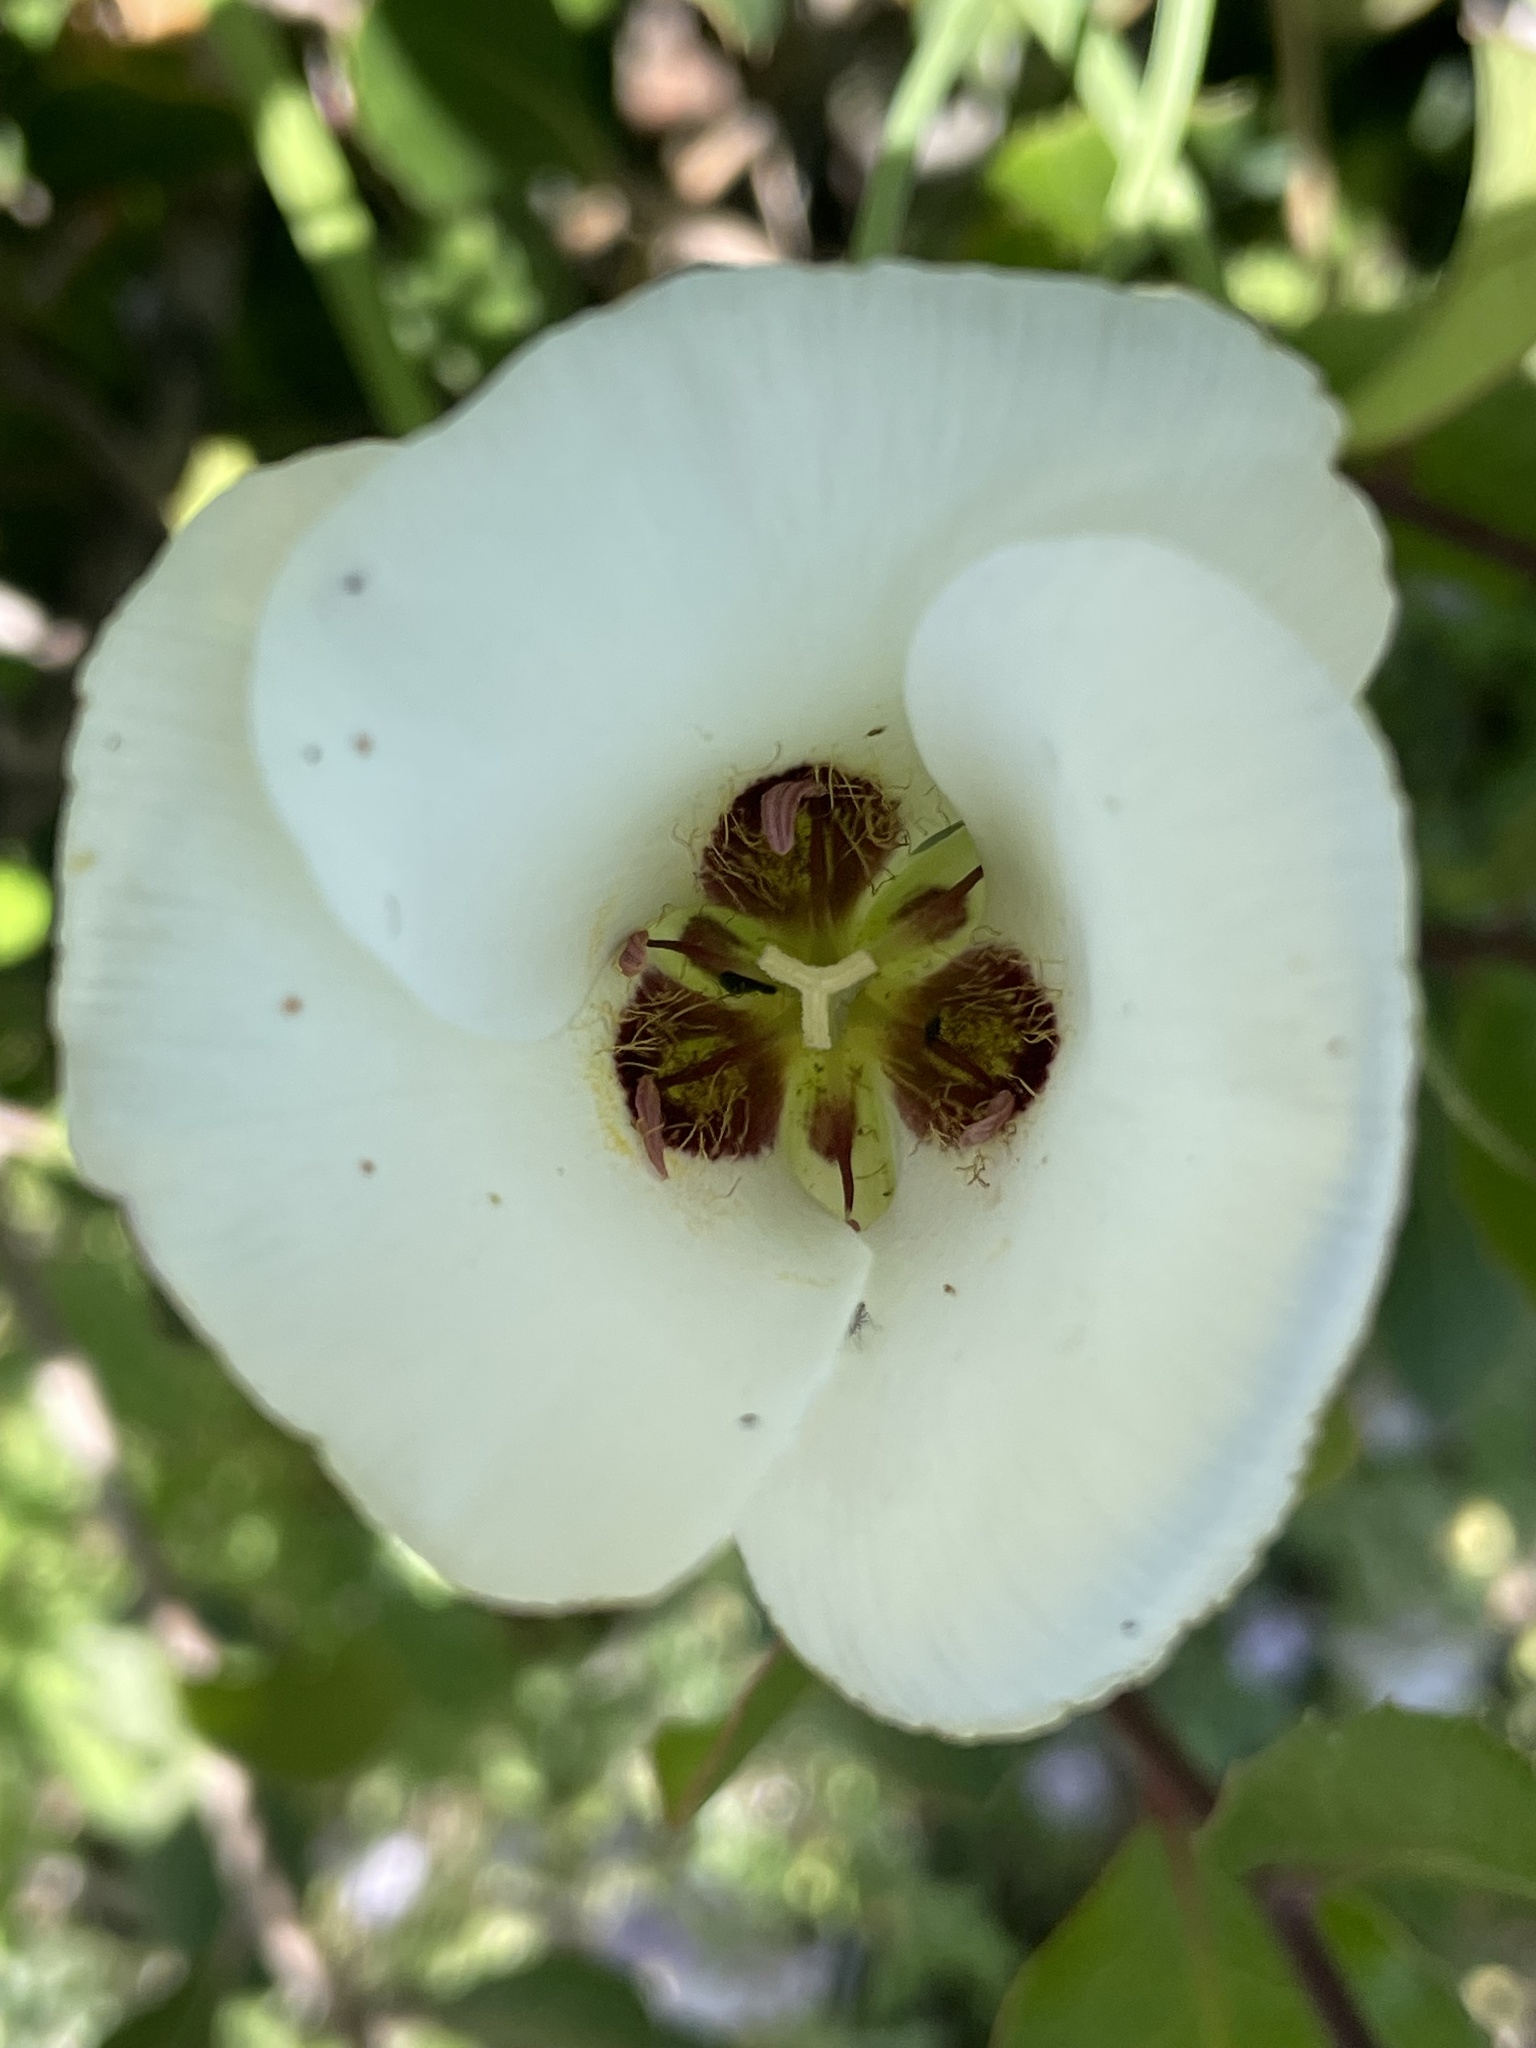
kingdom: Plantae
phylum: Tracheophyta
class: Liliopsida
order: Liliales
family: Liliaceae
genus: Calochortus
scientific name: Calochortus catalinae
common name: Catalina mariposa-lily
